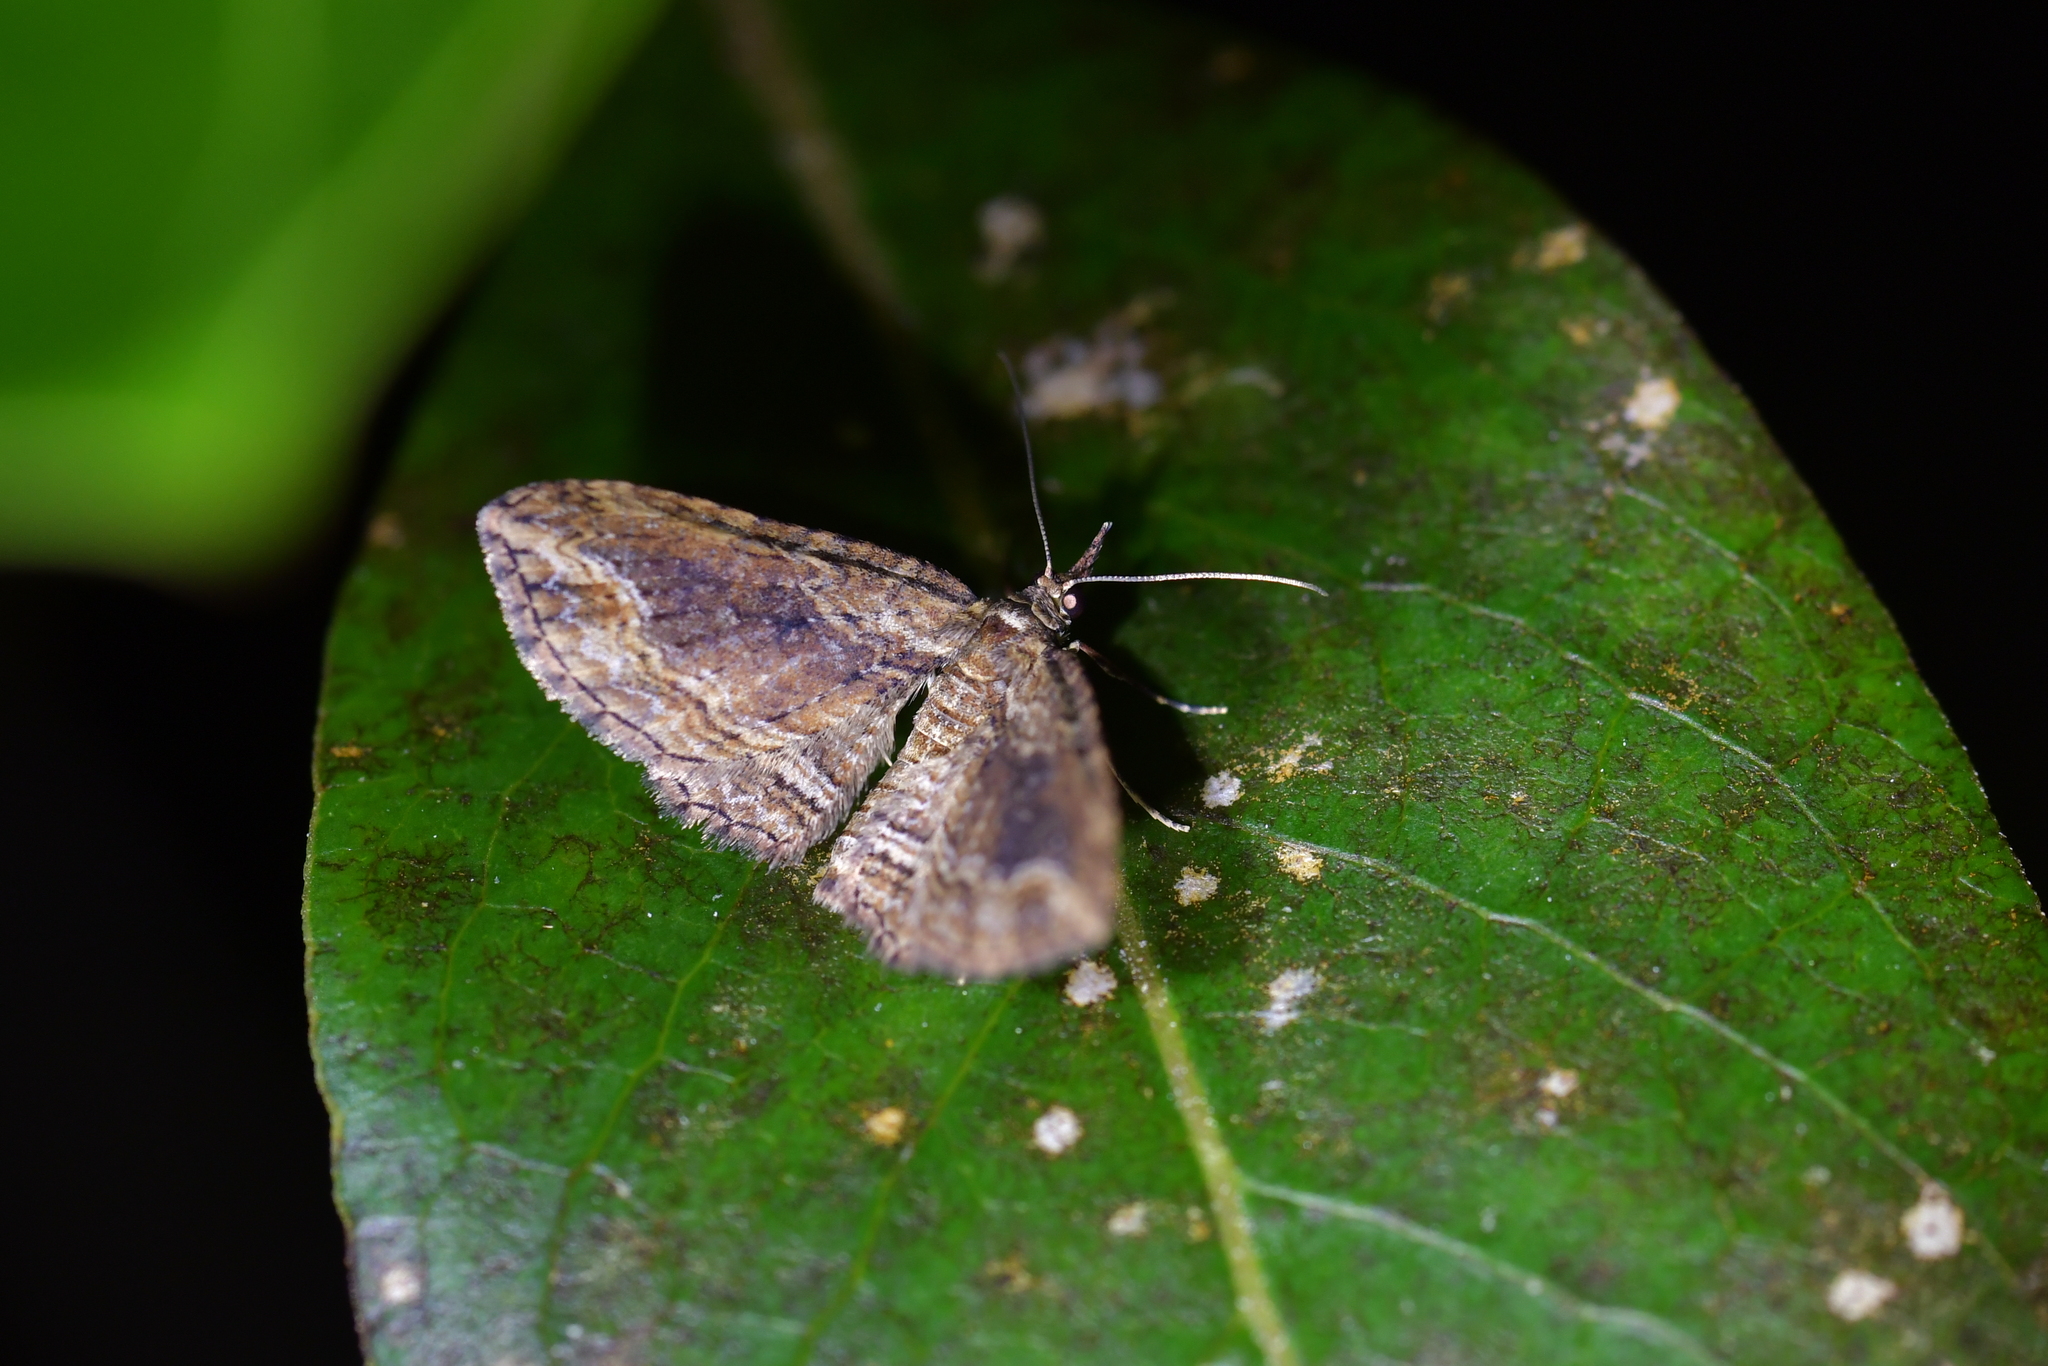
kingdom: Animalia
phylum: Arthropoda
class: Insecta
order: Lepidoptera
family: Geometridae
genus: Chloroclystis
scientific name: Chloroclystis filata
